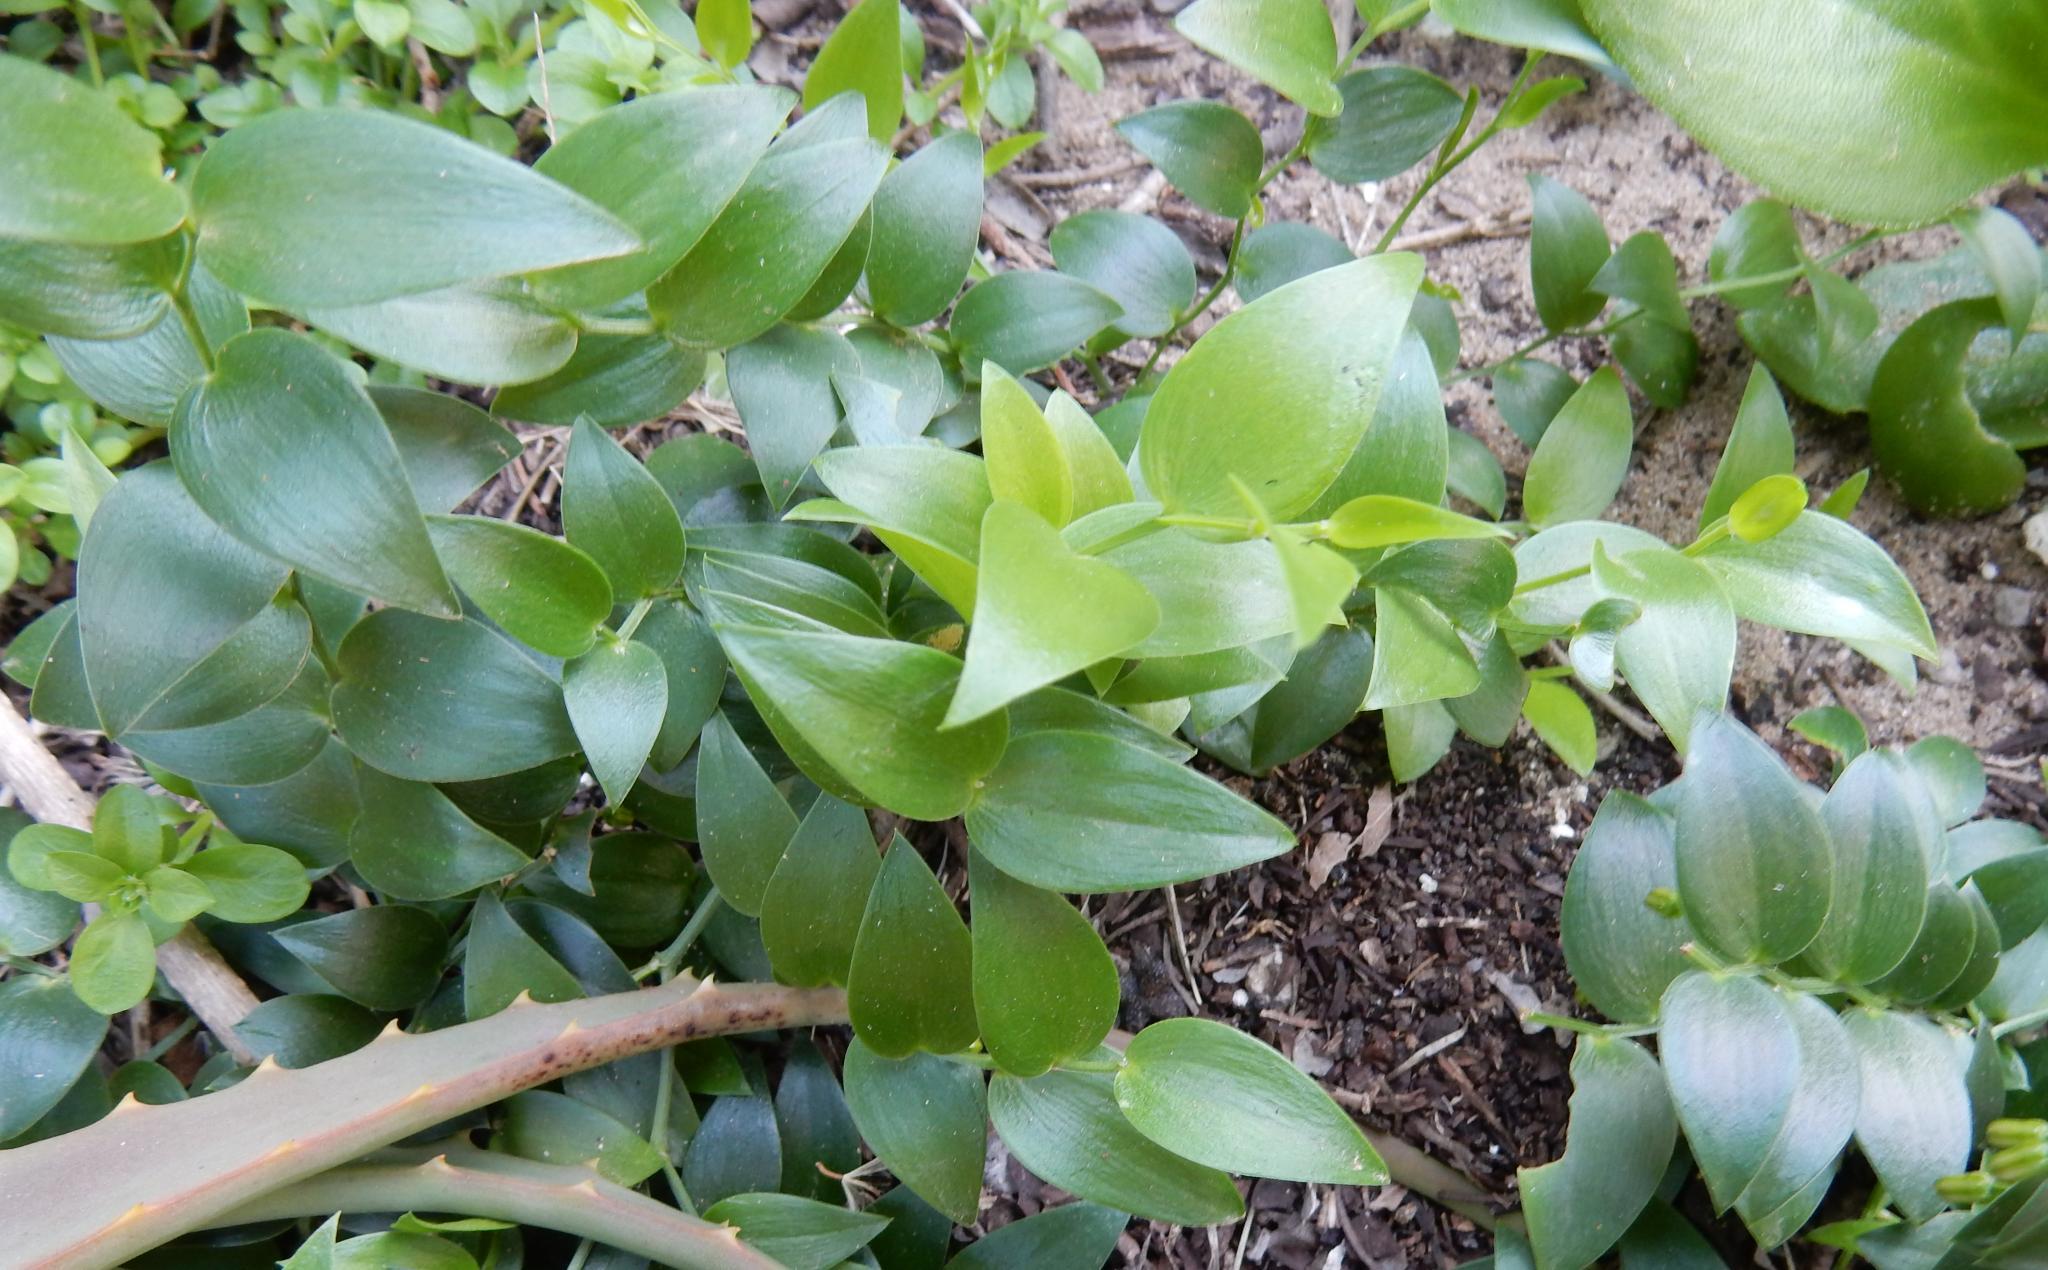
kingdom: Plantae
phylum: Tracheophyta
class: Liliopsida
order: Asparagales
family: Asparagaceae
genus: Asparagus
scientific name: Asparagus asparagoides
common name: African asparagus fern
